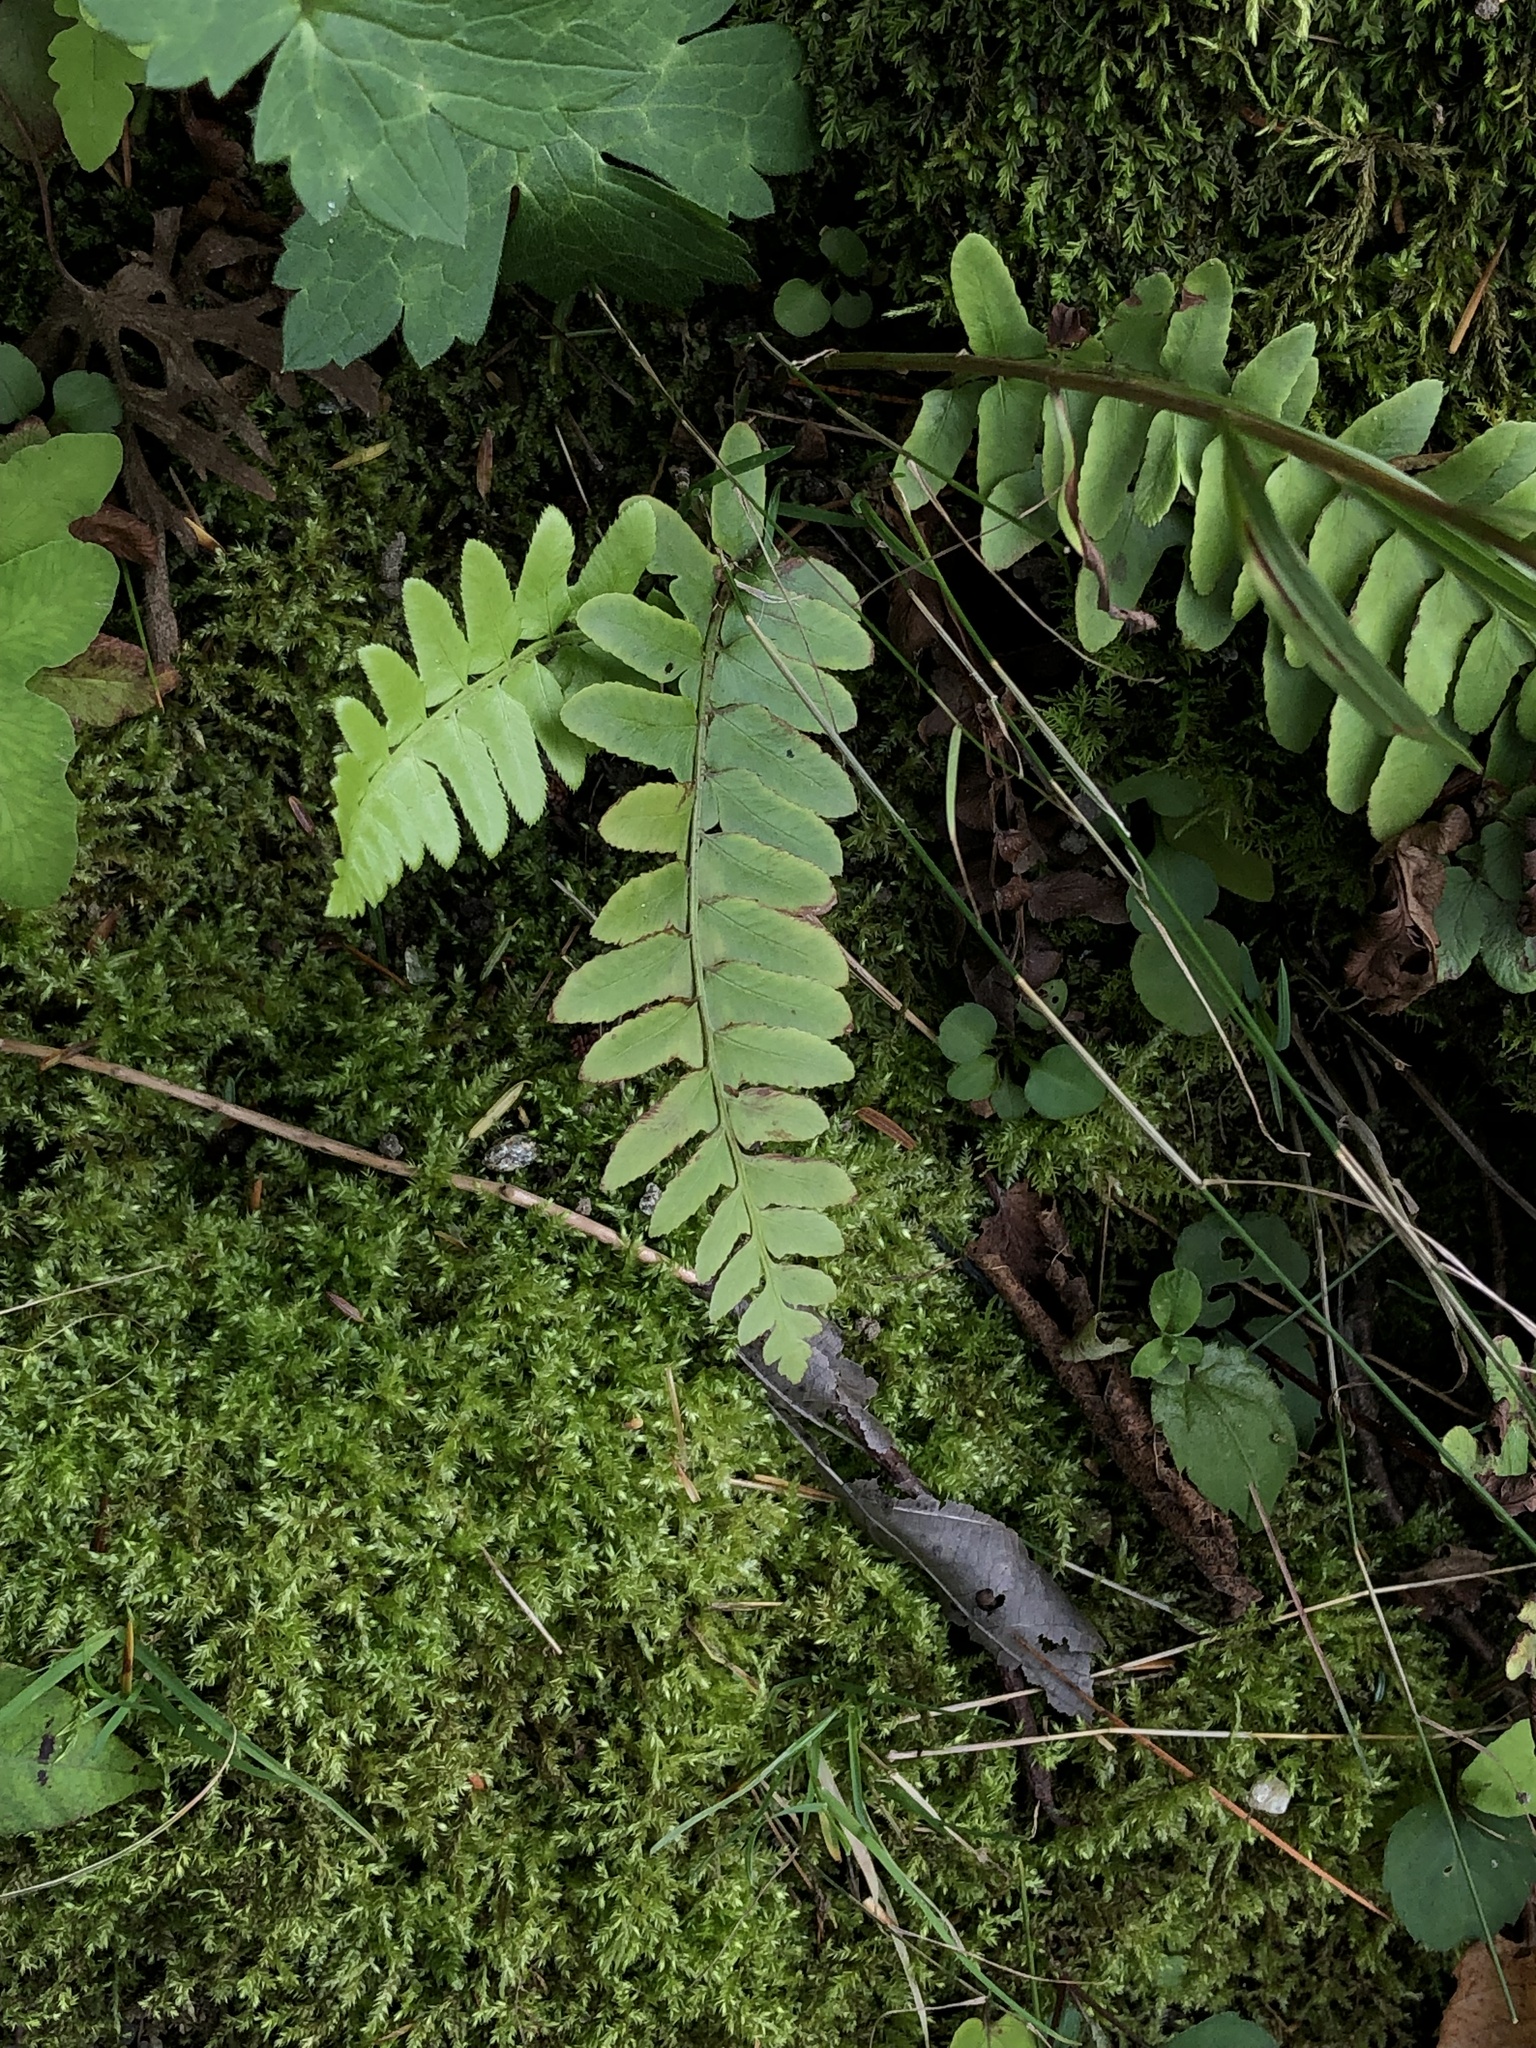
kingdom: Plantae
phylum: Tracheophyta
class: Polypodiopsida
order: Polypodiales
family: Dryopteridaceae
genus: Polystichum
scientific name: Polystichum acrostichoides
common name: Christmas fern
